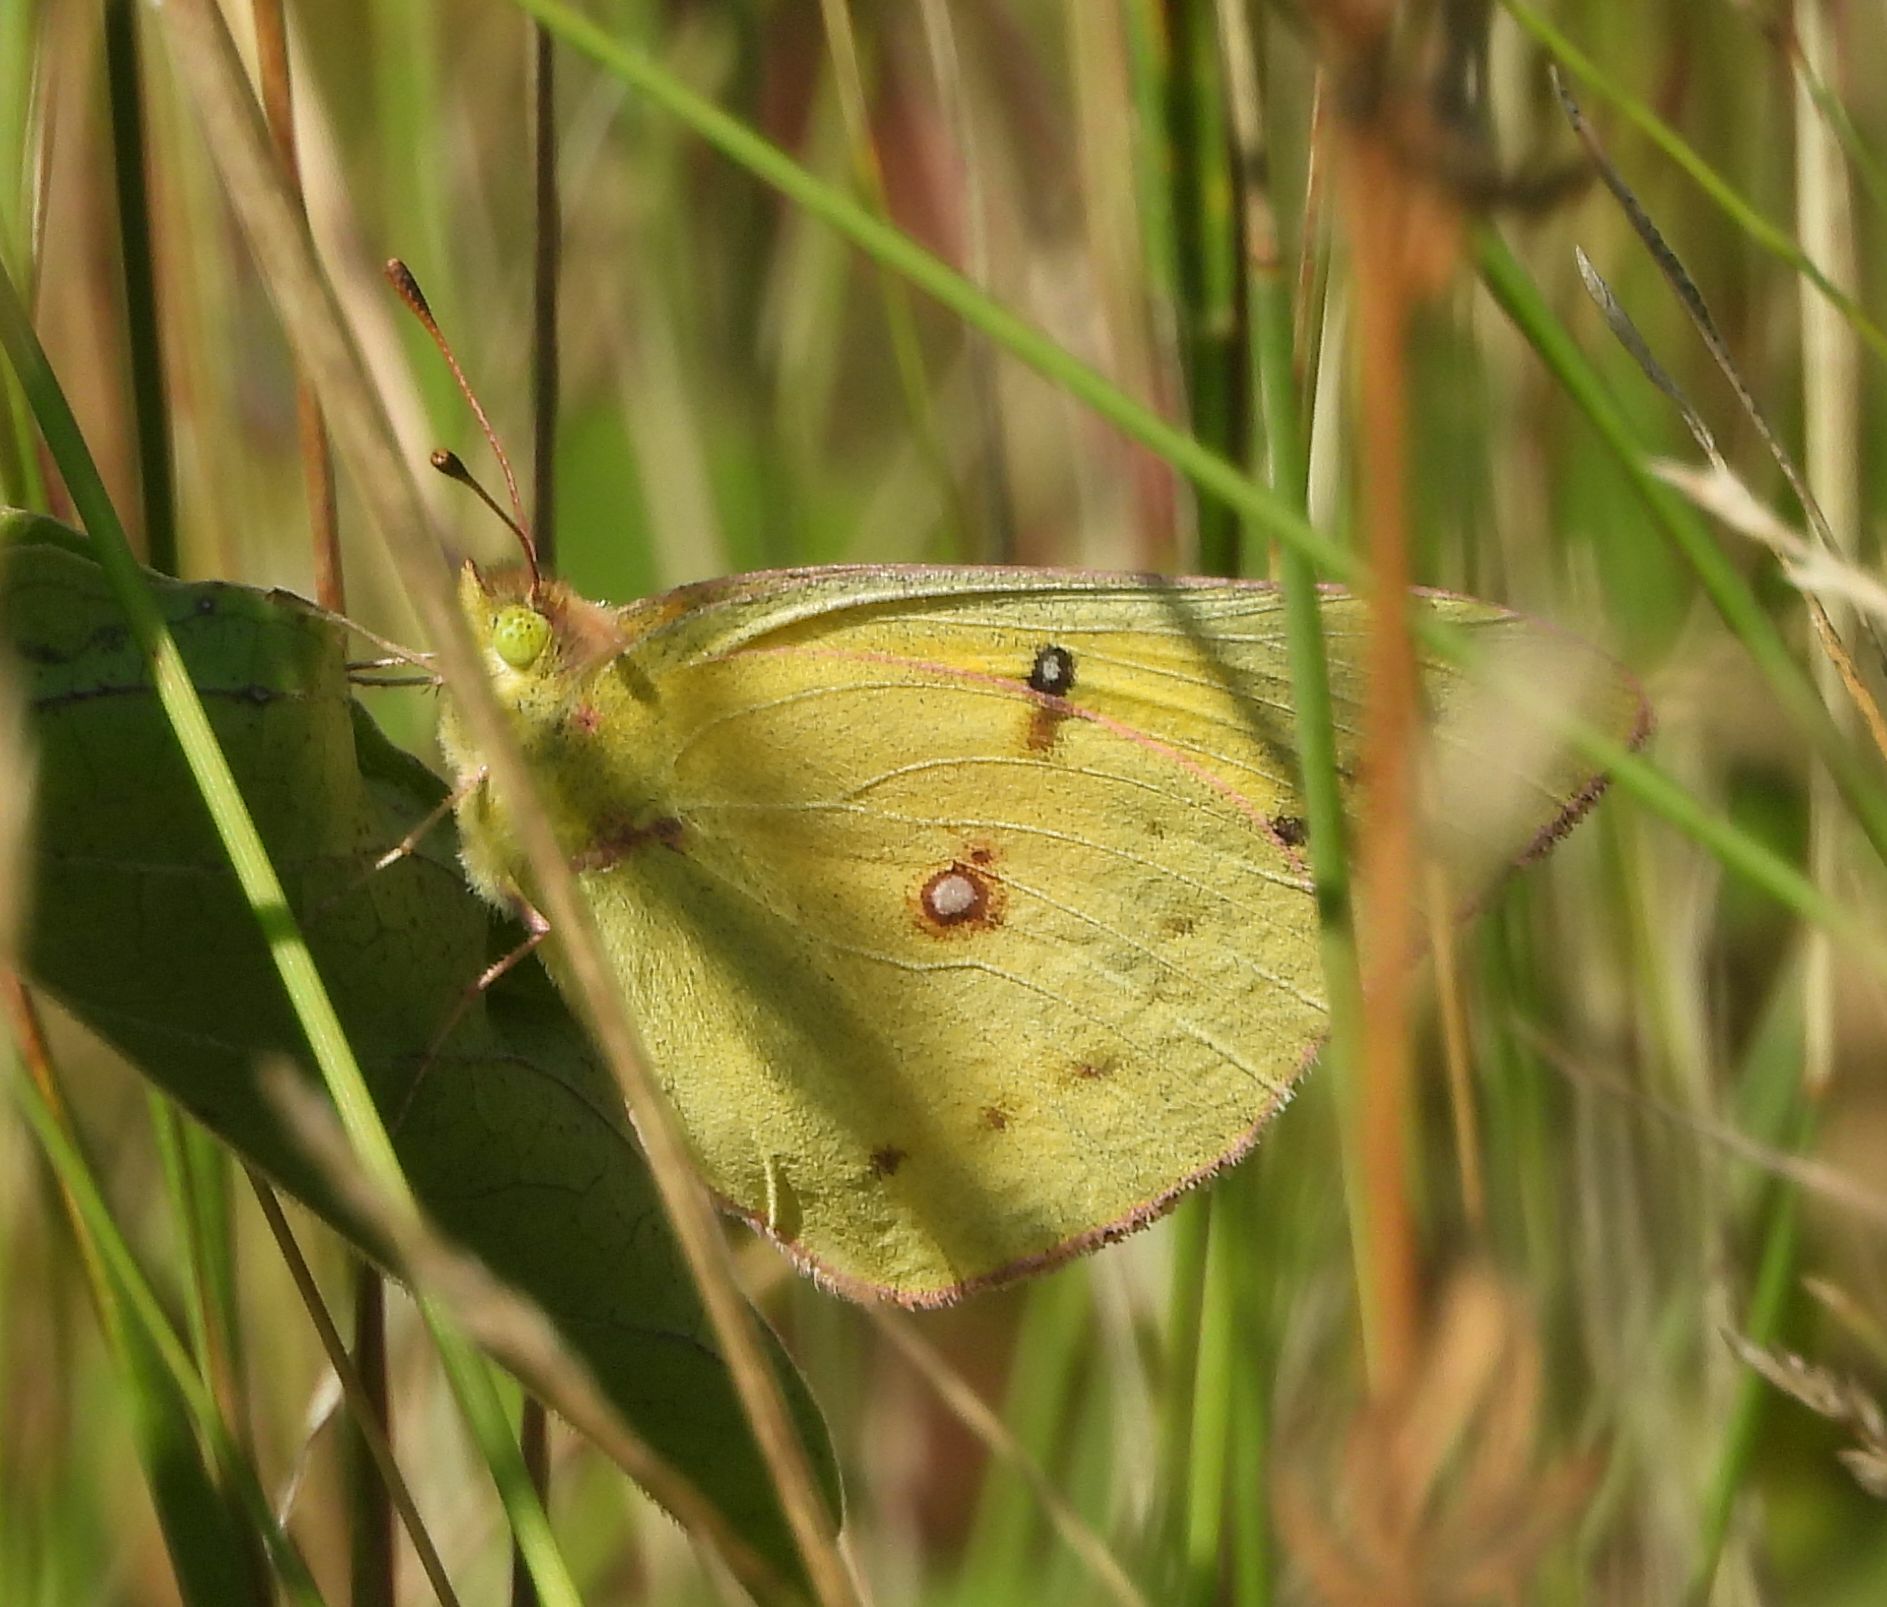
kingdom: Animalia
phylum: Arthropoda
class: Insecta
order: Lepidoptera
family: Pieridae
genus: Colias
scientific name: Colias eurytheme
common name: Alfalfa butterfly
